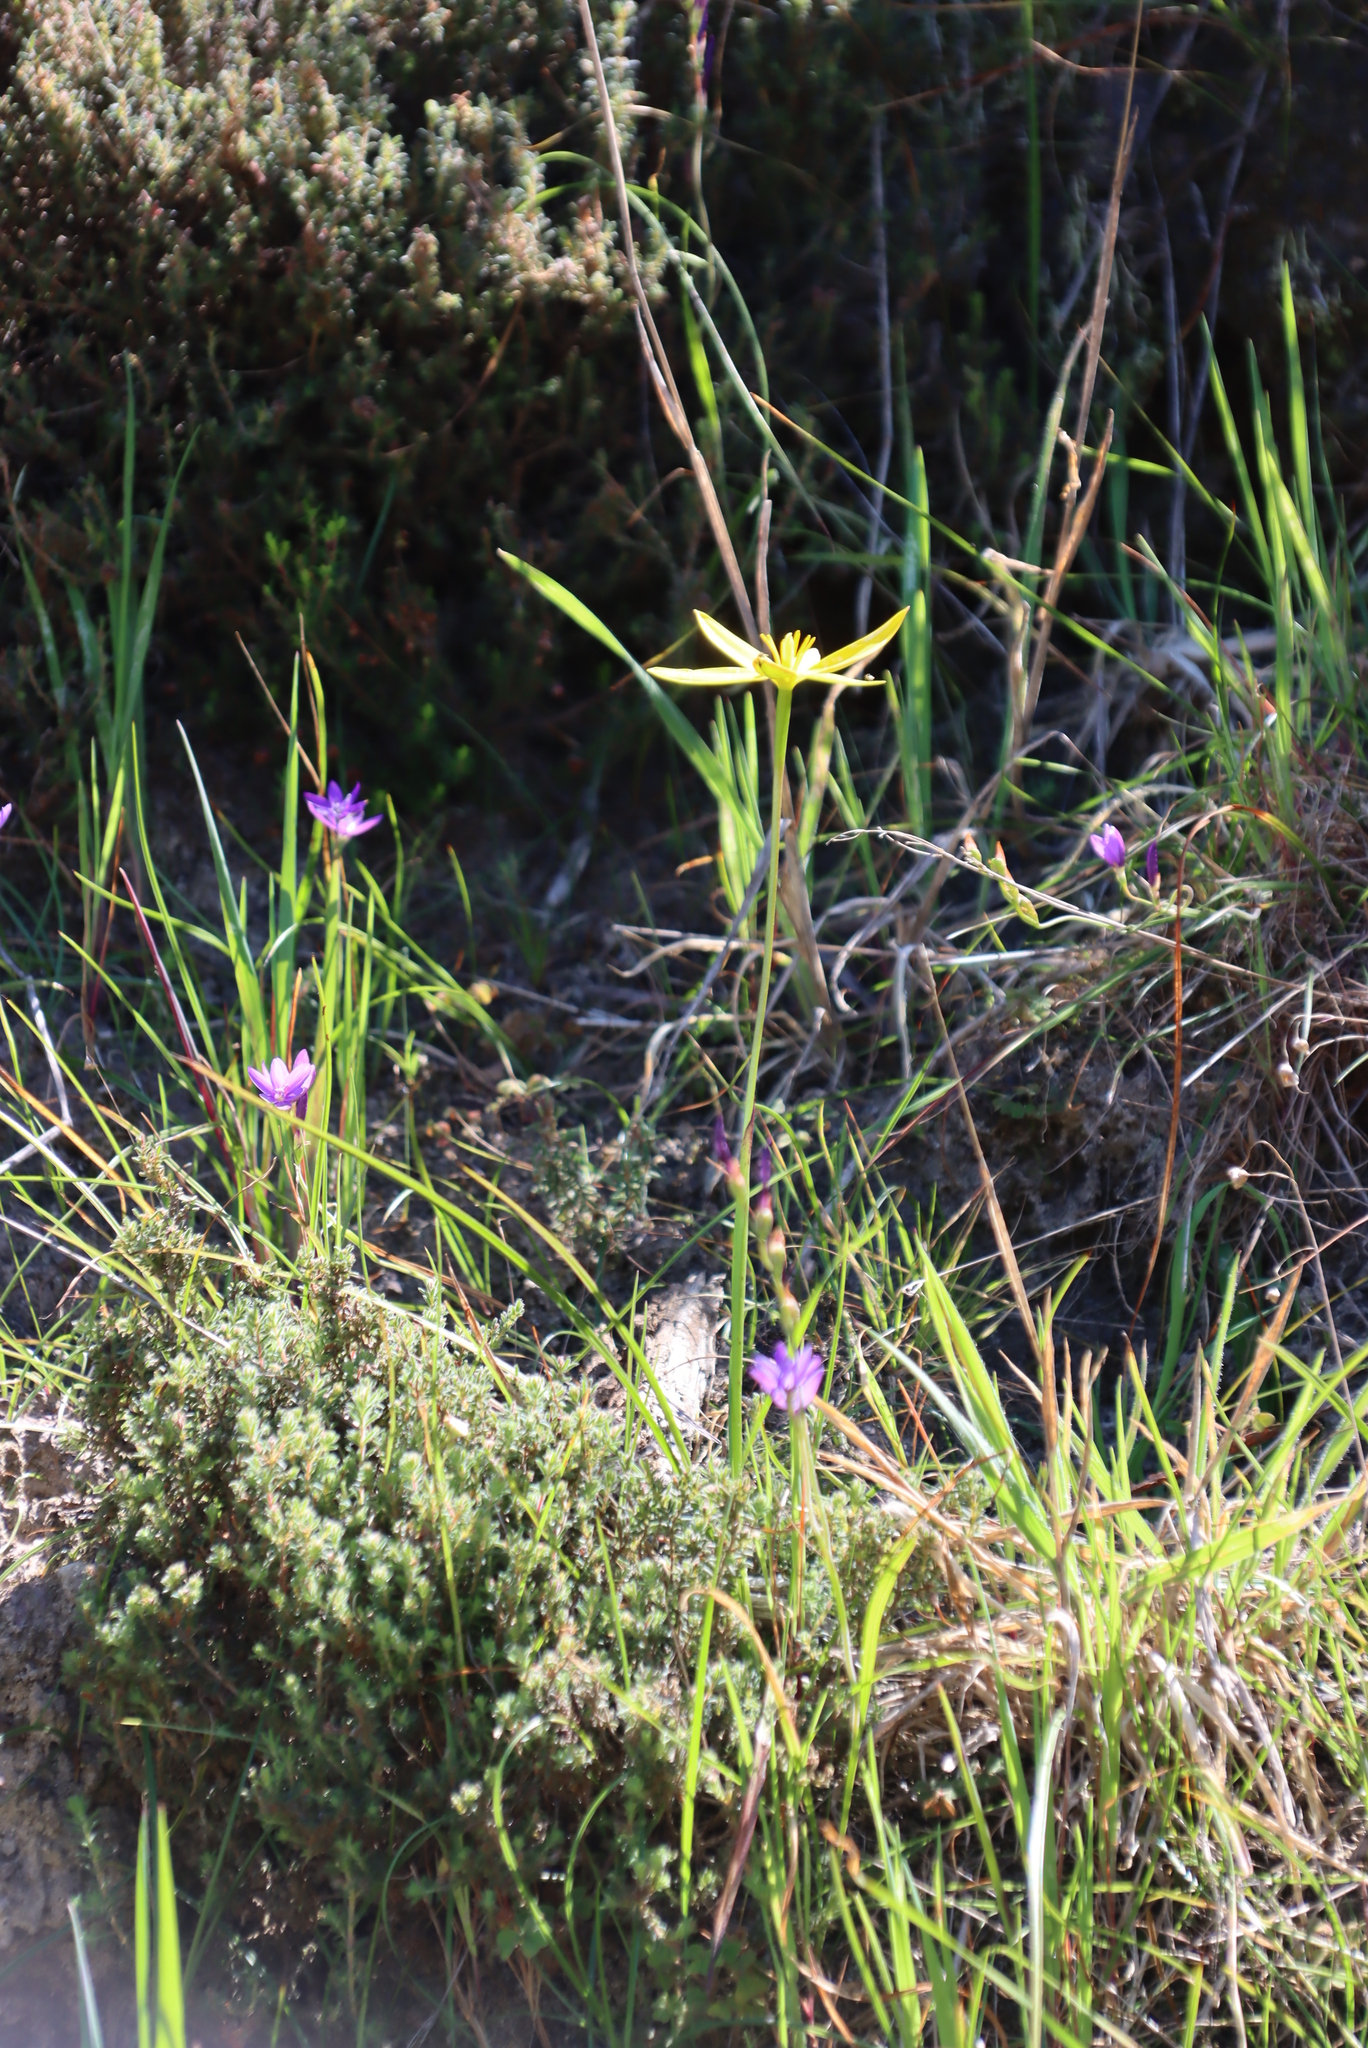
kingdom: Plantae
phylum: Tracheophyta
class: Liliopsida
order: Asparagales
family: Hypoxidaceae
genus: Pauridia
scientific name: Pauridia capensis
